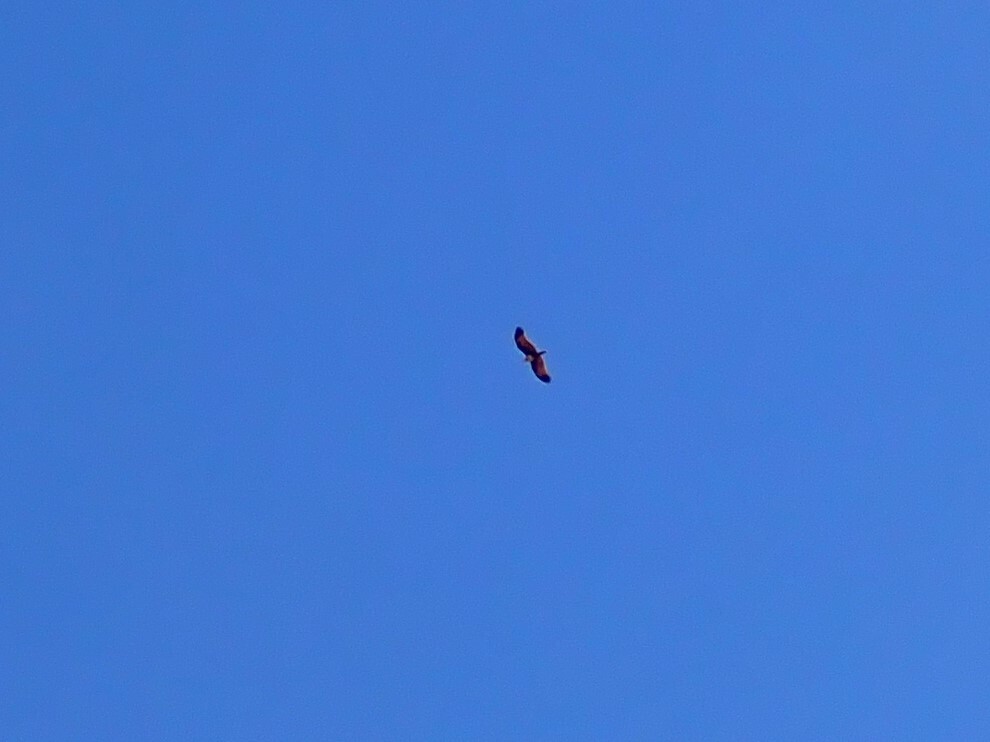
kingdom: Animalia
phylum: Chordata
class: Aves
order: Accipitriformes
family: Accipitridae
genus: Haliastur
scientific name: Haliastur indus
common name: Brahminy kite
